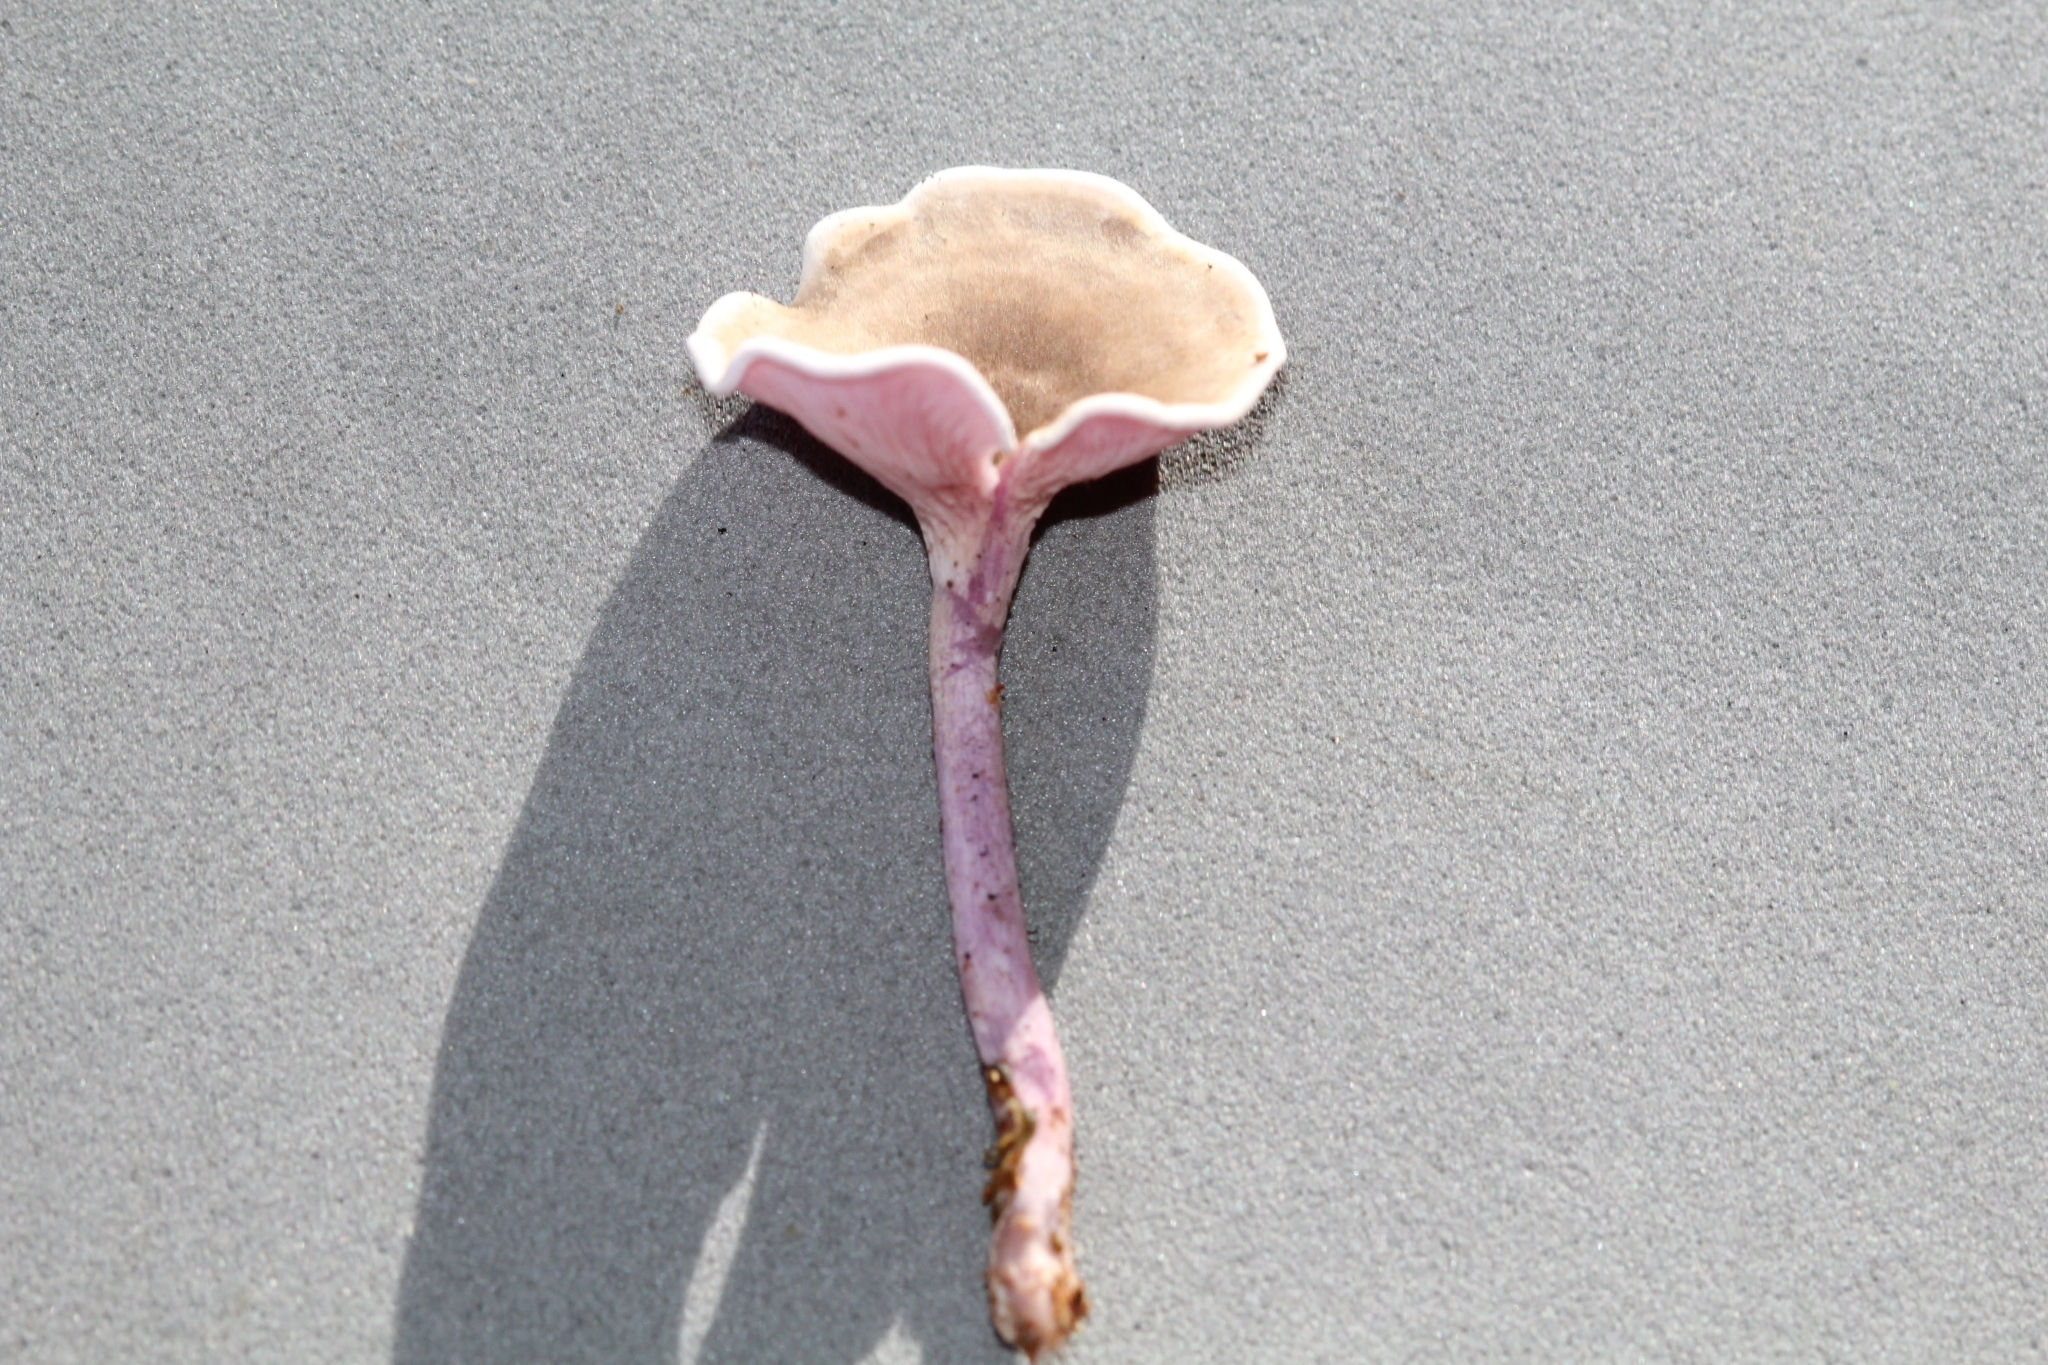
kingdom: Fungi
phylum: Basidiomycota
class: Agaricomycetes
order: Agaricales
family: Marasmiaceae
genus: Trogia
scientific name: Trogia cantharelloides
